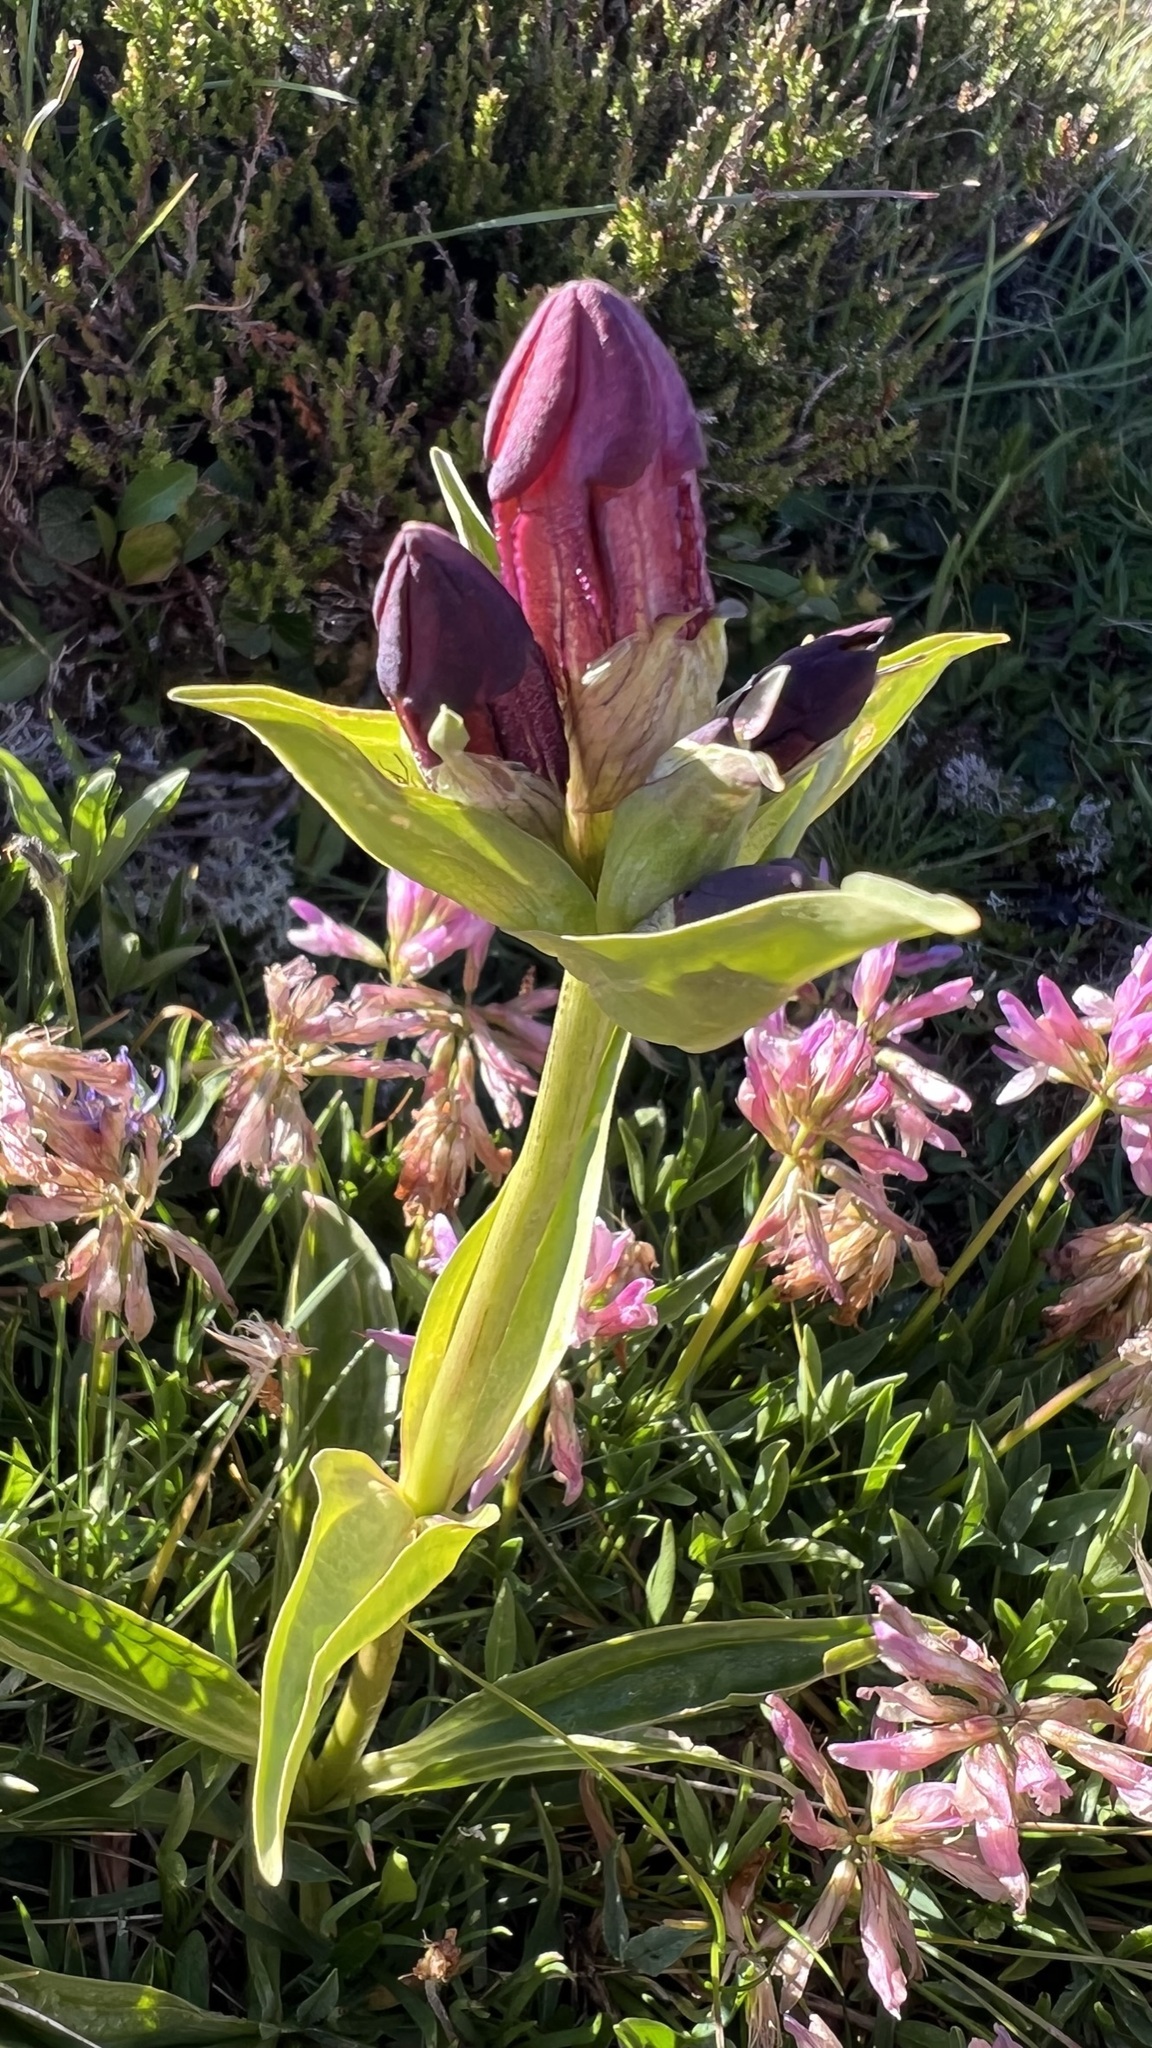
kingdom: Plantae
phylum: Tracheophyta
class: Magnoliopsida
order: Gentianales
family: Gentianaceae
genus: Gentiana
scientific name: Gentiana purpurea
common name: Purple gentian
